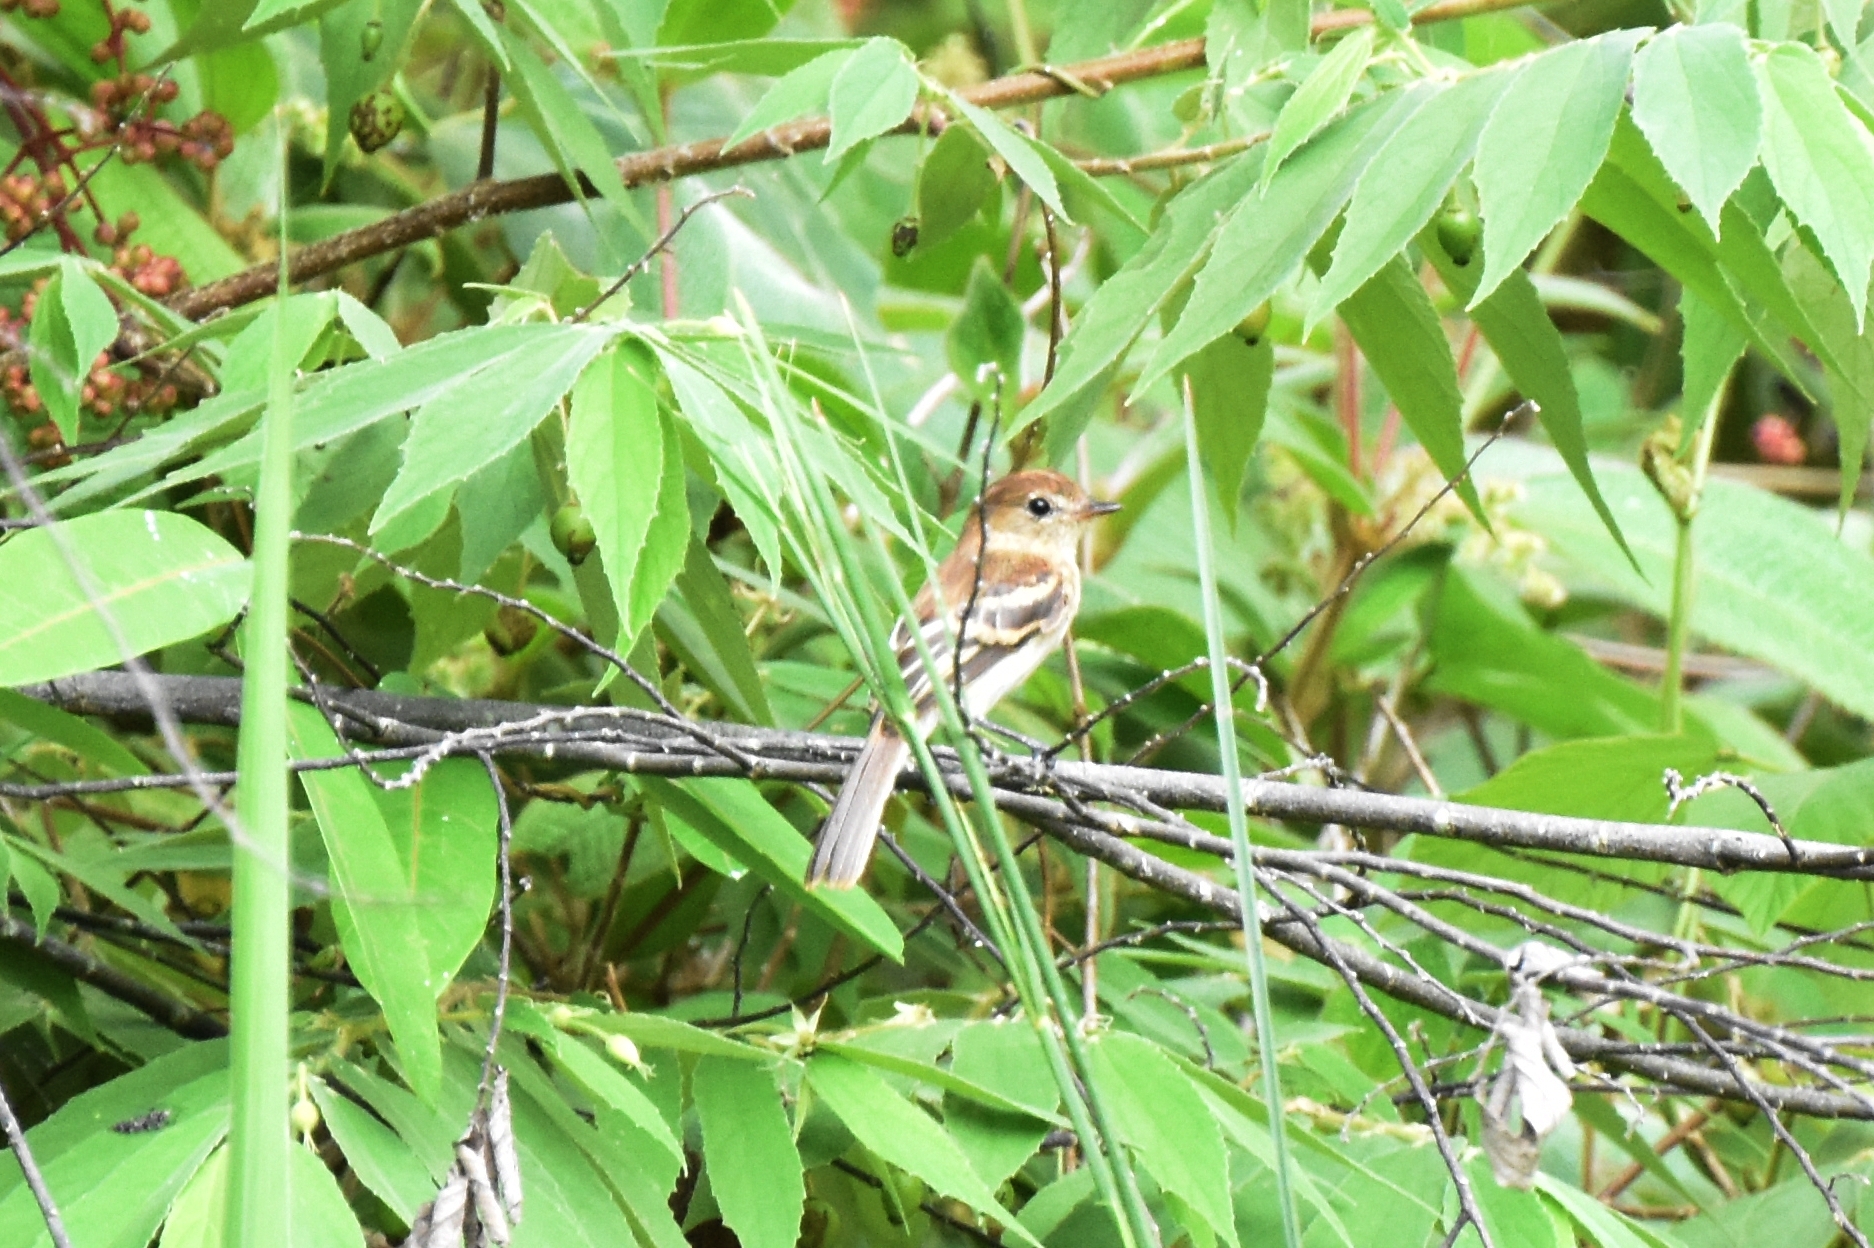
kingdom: Animalia
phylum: Chordata
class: Aves
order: Passeriformes
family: Tyrannidae
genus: Myiophobus
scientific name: Myiophobus fasciatus
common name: Bran-colored flycatcher
